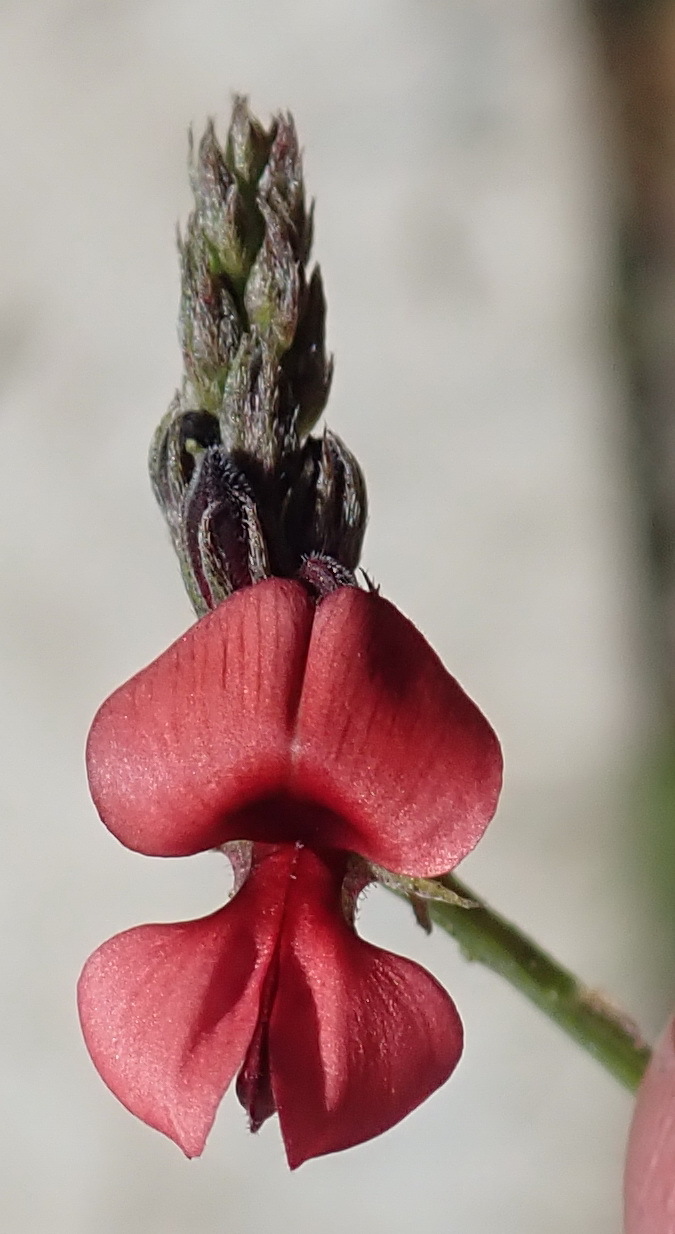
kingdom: Plantae
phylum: Tracheophyta
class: Magnoliopsida
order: Fabales
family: Fabaceae
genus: Indigofera
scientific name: Indigofera heterophylla
